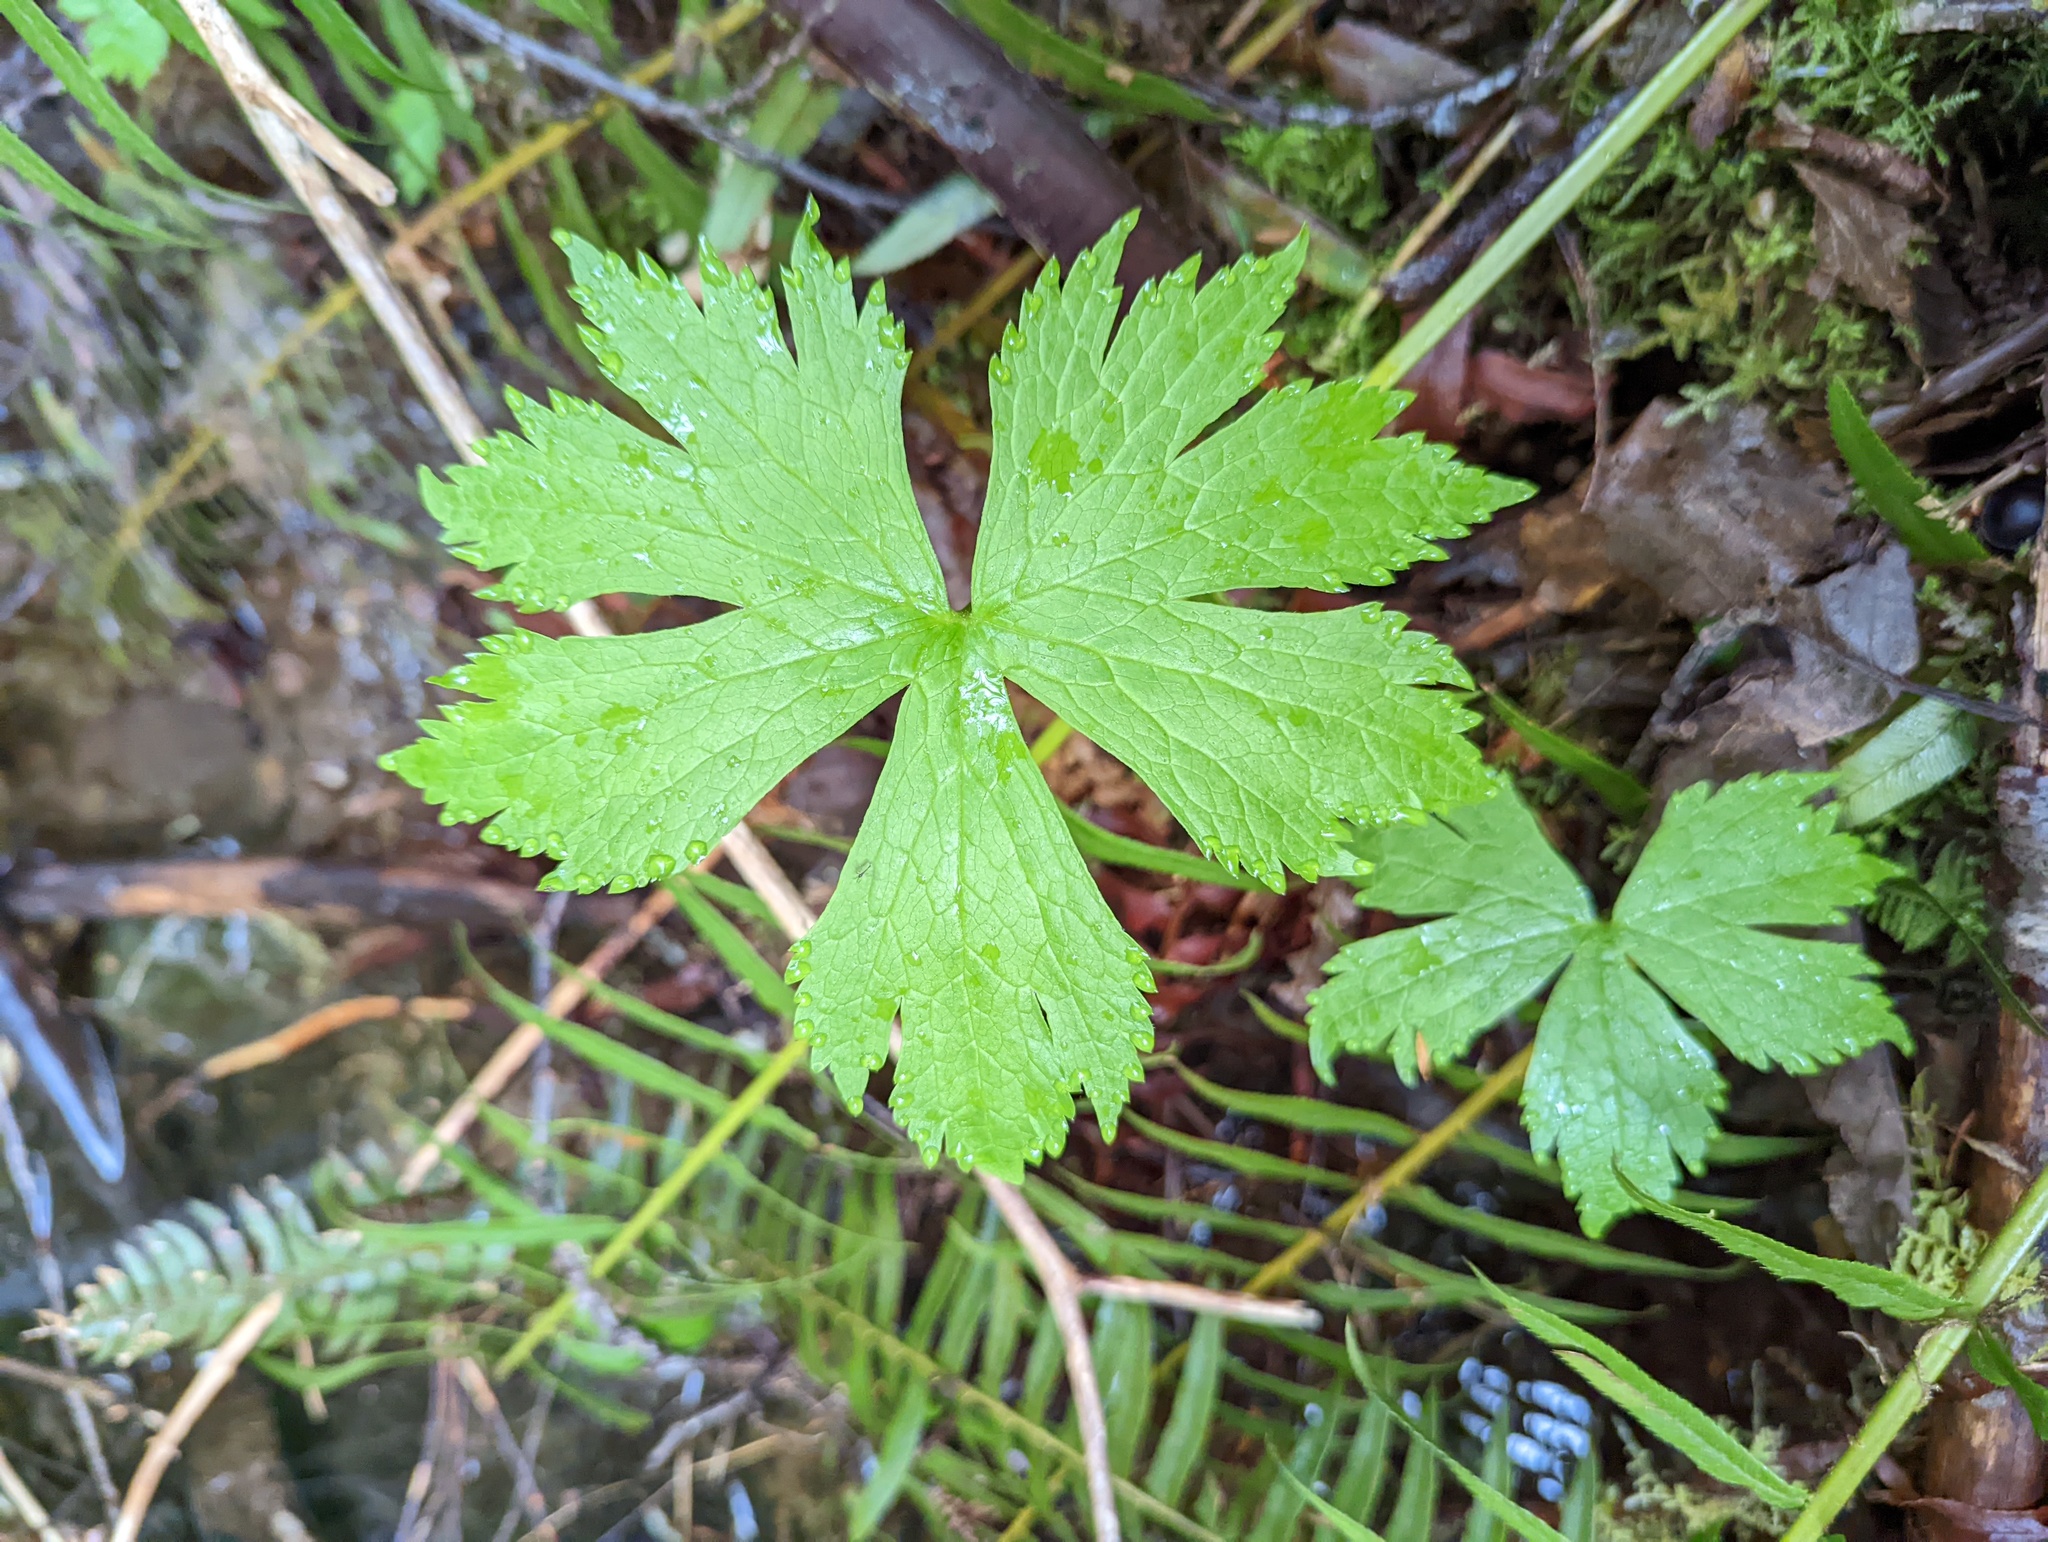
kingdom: Plantae
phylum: Tracheophyta
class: Magnoliopsida
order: Ranunculales
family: Ranunculaceae
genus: Trautvetteria
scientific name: Trautvetteria carolinensis
